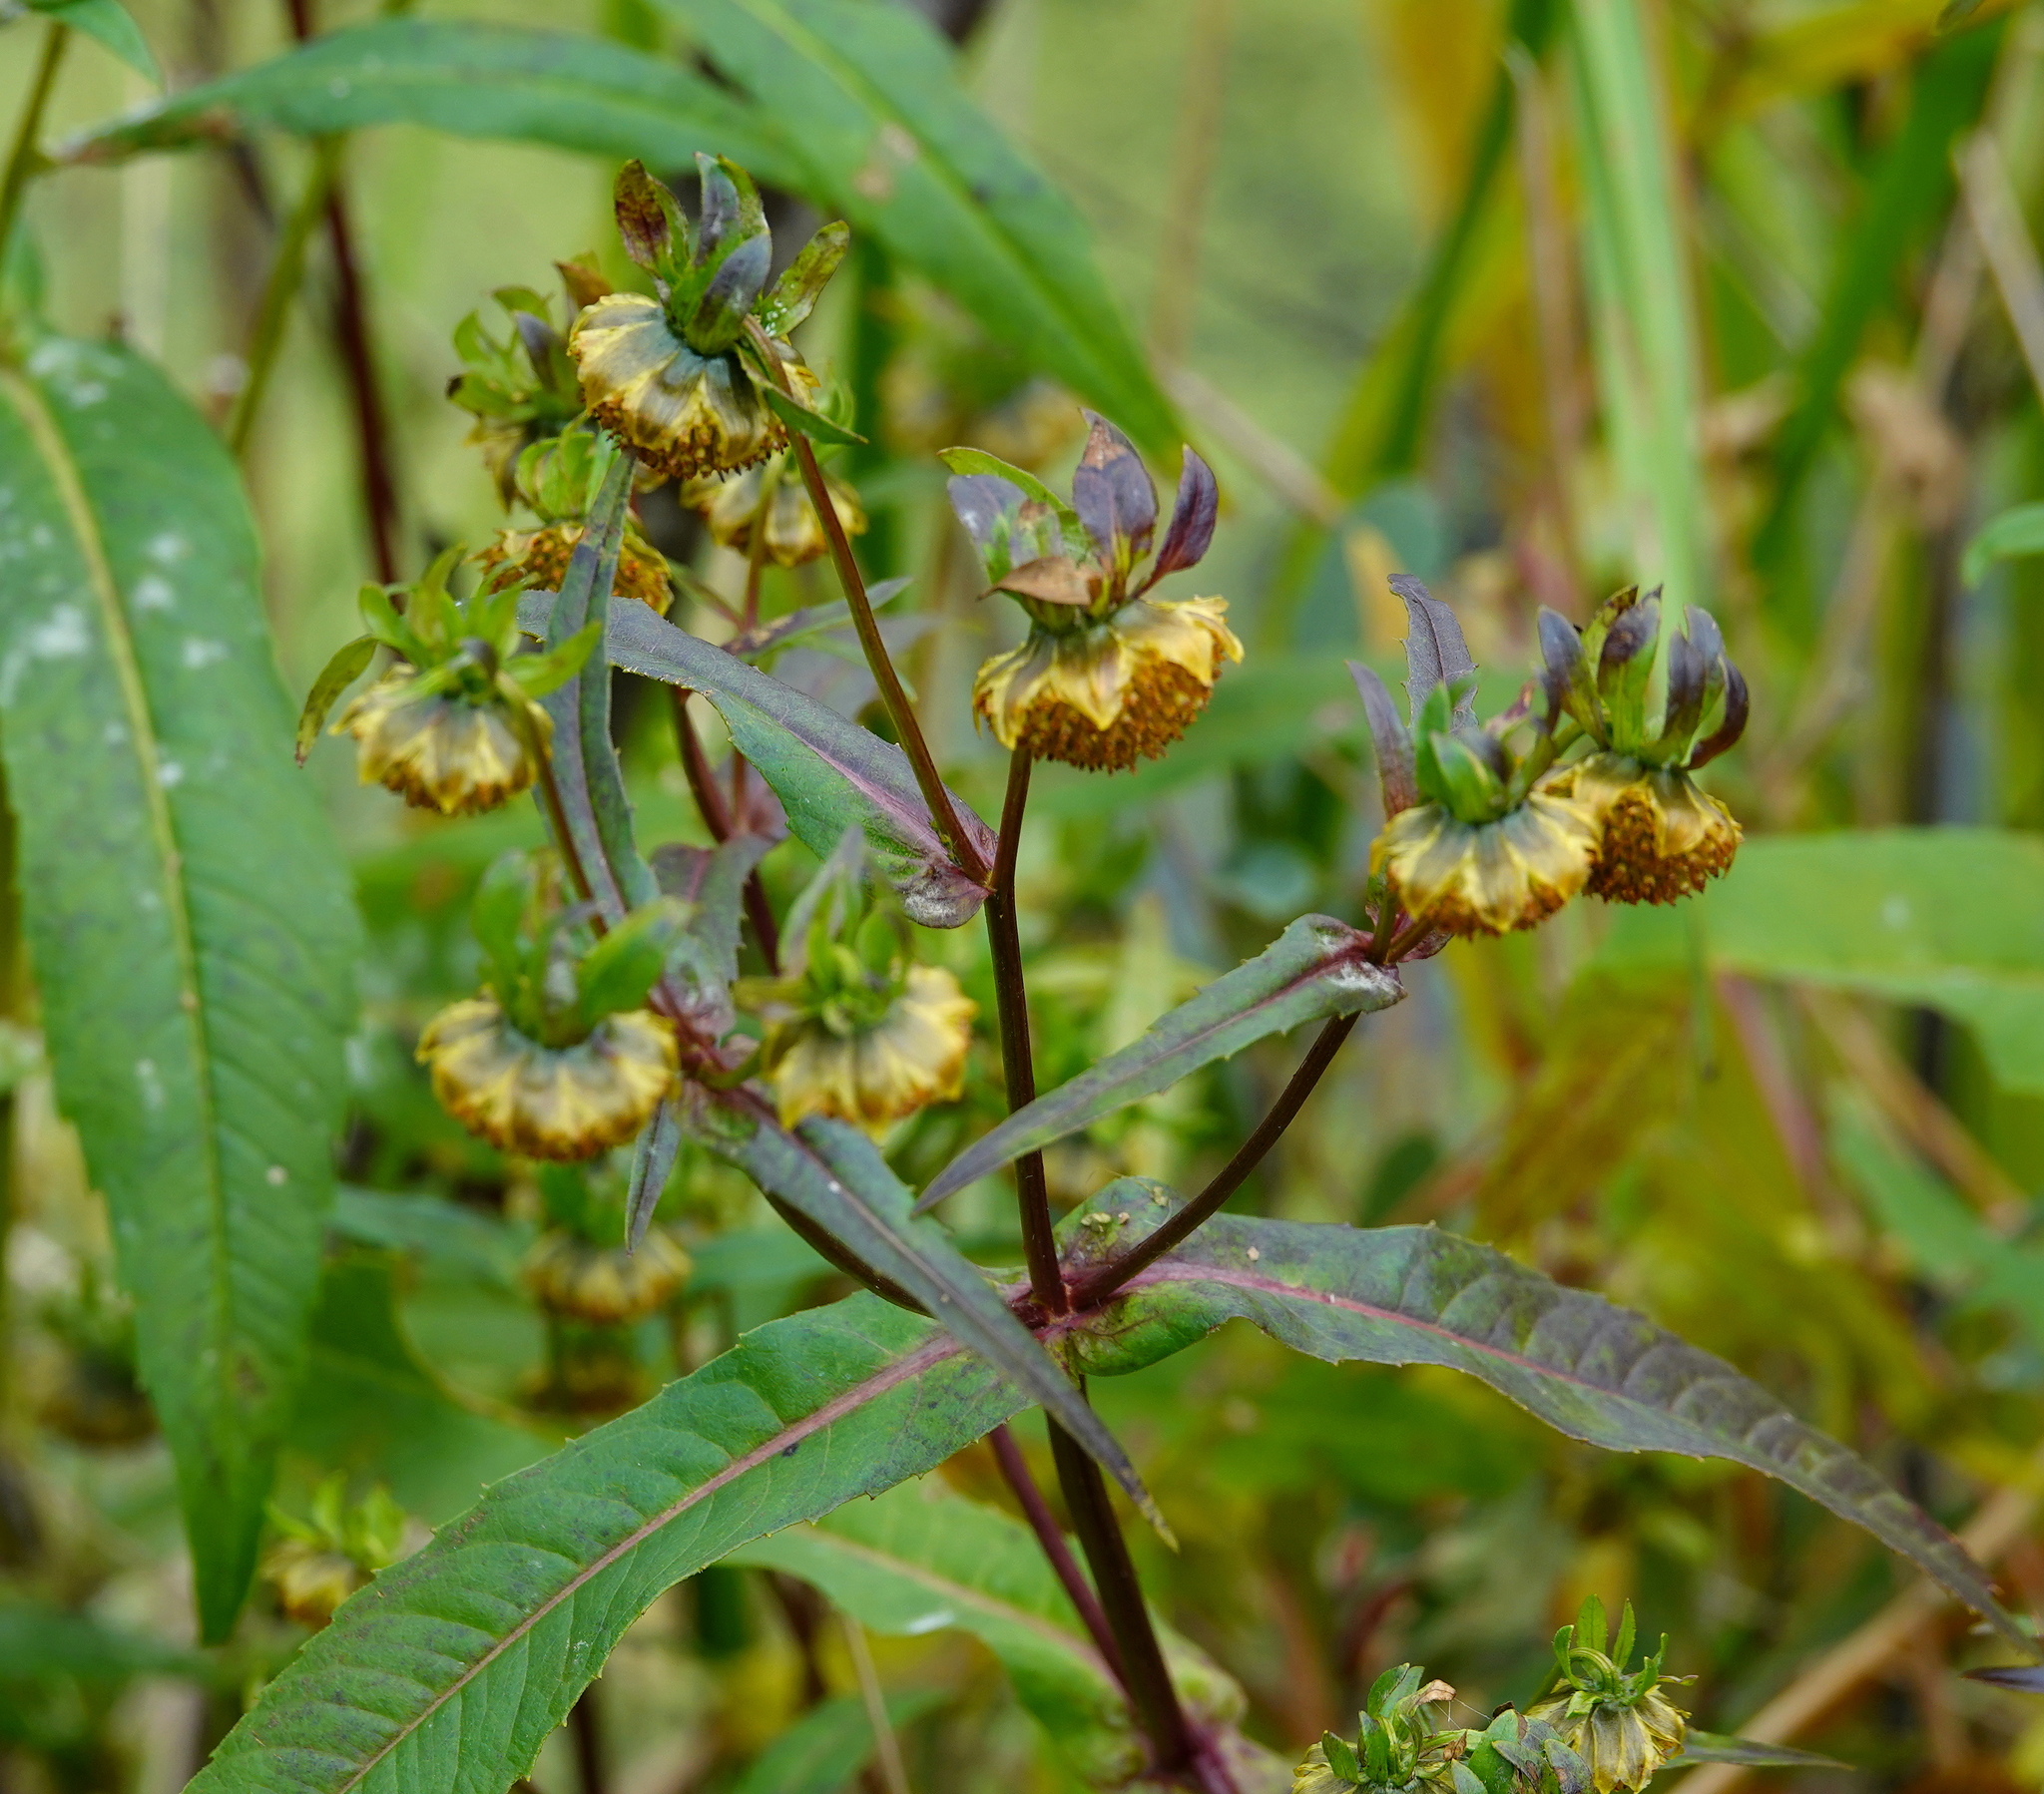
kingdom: Plantae
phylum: Tracheophyta
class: Magnoliopsida
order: Asterales
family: Asteraceae
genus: Bidens
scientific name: Bidens cernua
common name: Nodding bur-marigold
